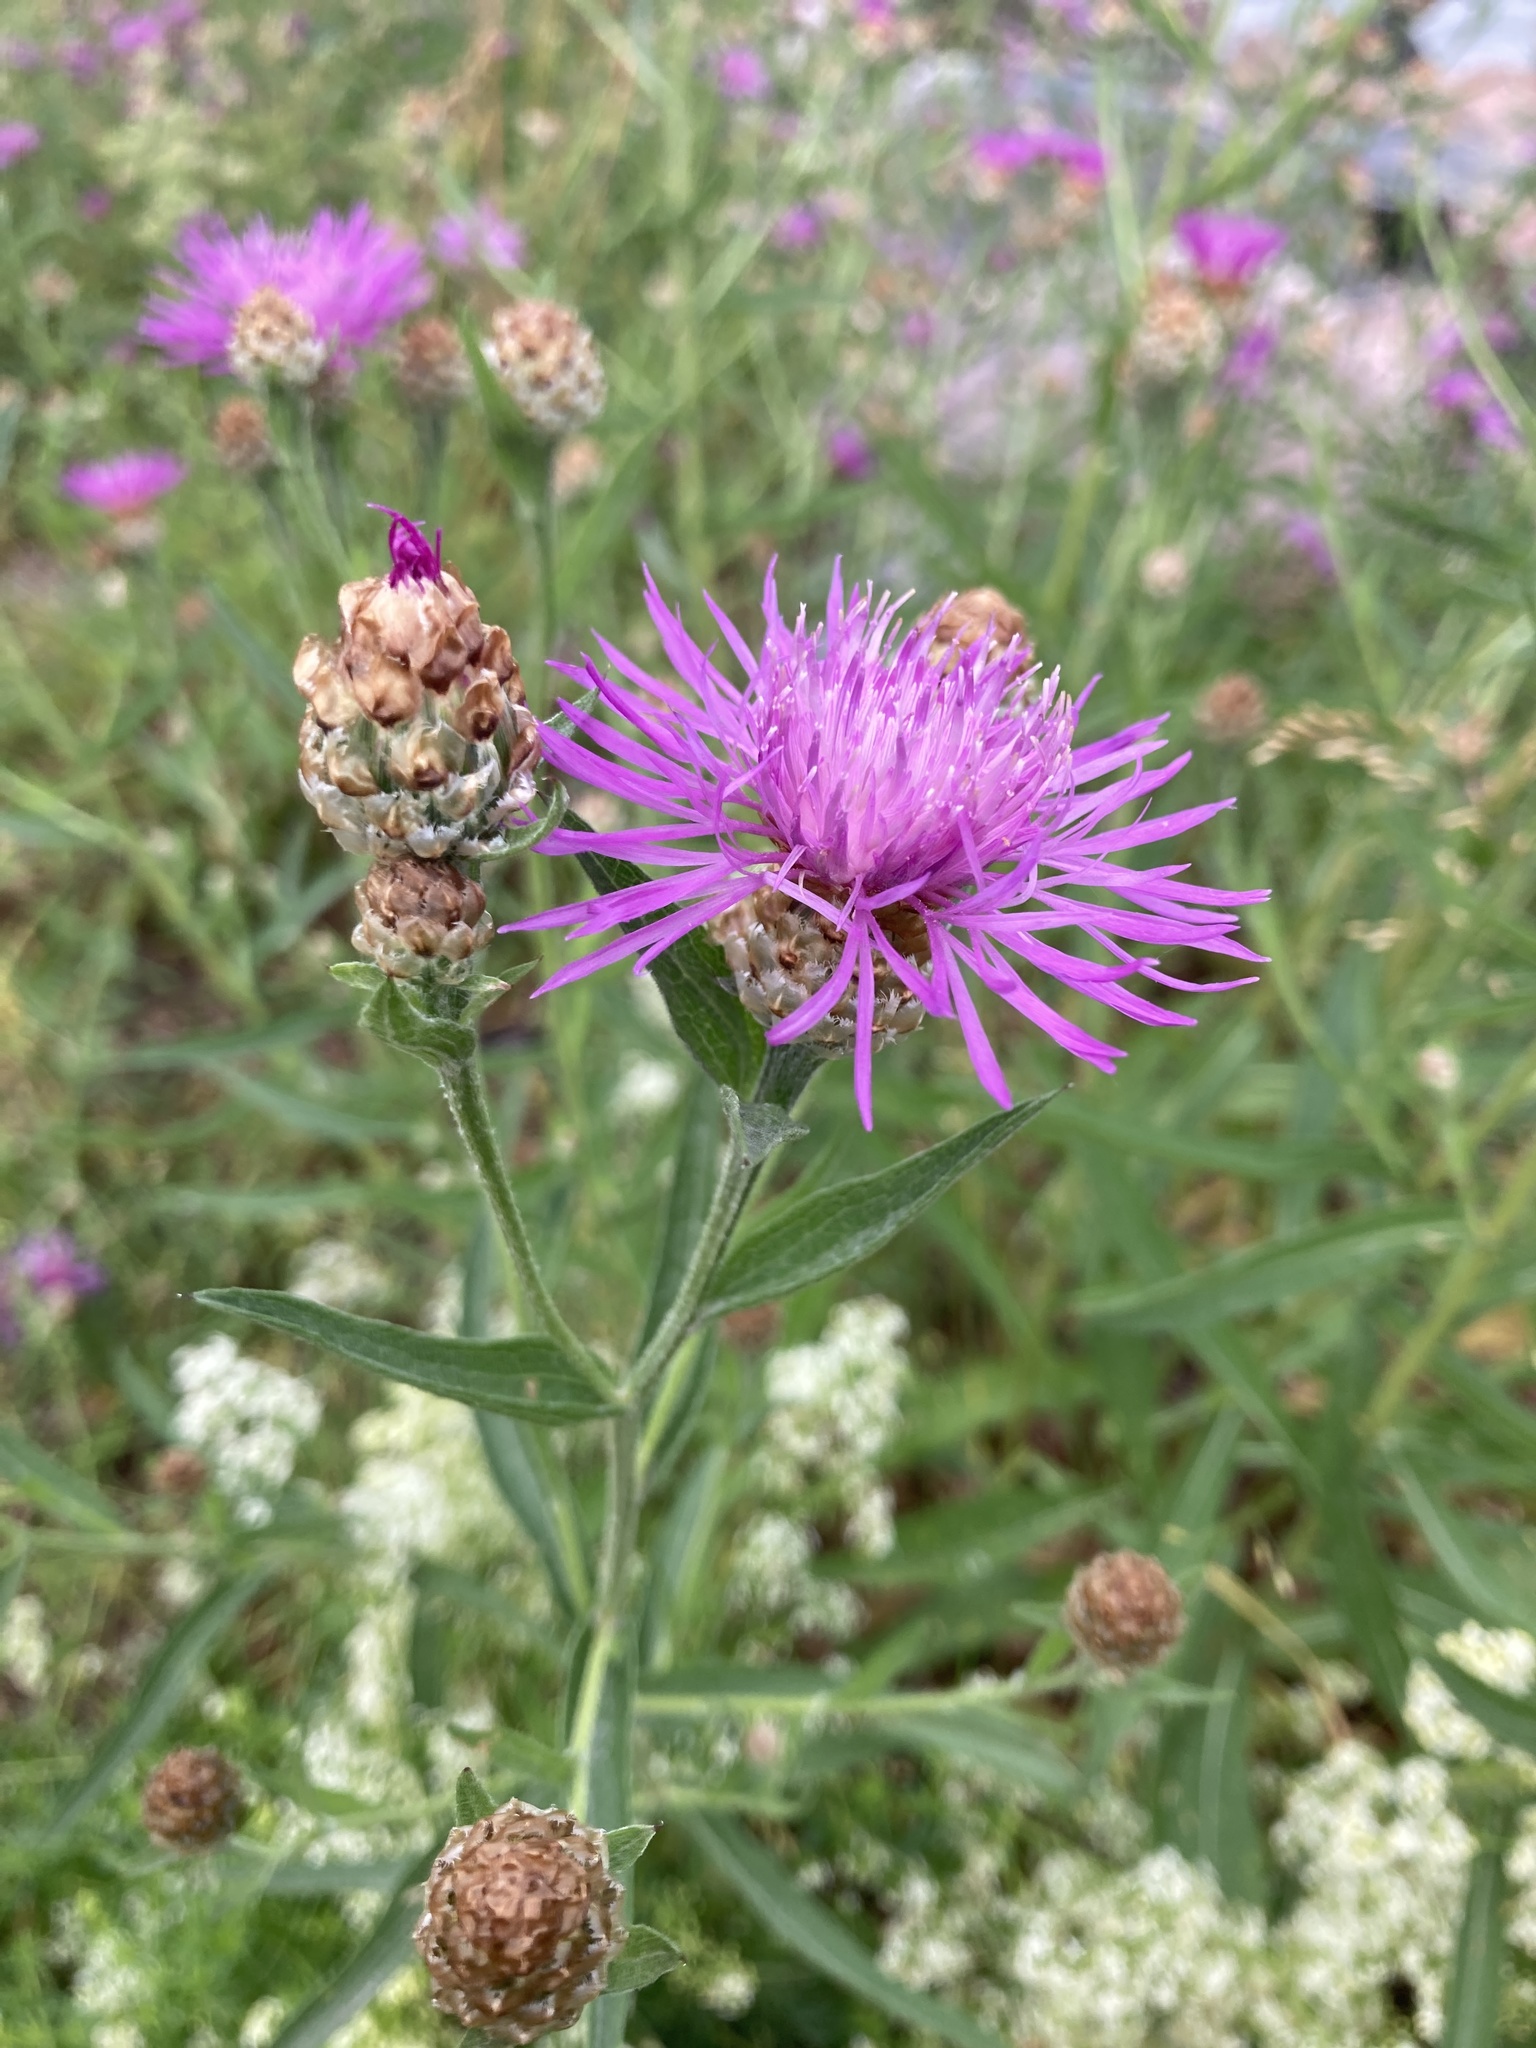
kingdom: Plantae
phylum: Tracheophyta
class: Magnoliopsida
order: Asterales
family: Asteraceae
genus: Centaurea
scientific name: Centaurea jacea
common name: Brown knapweed
